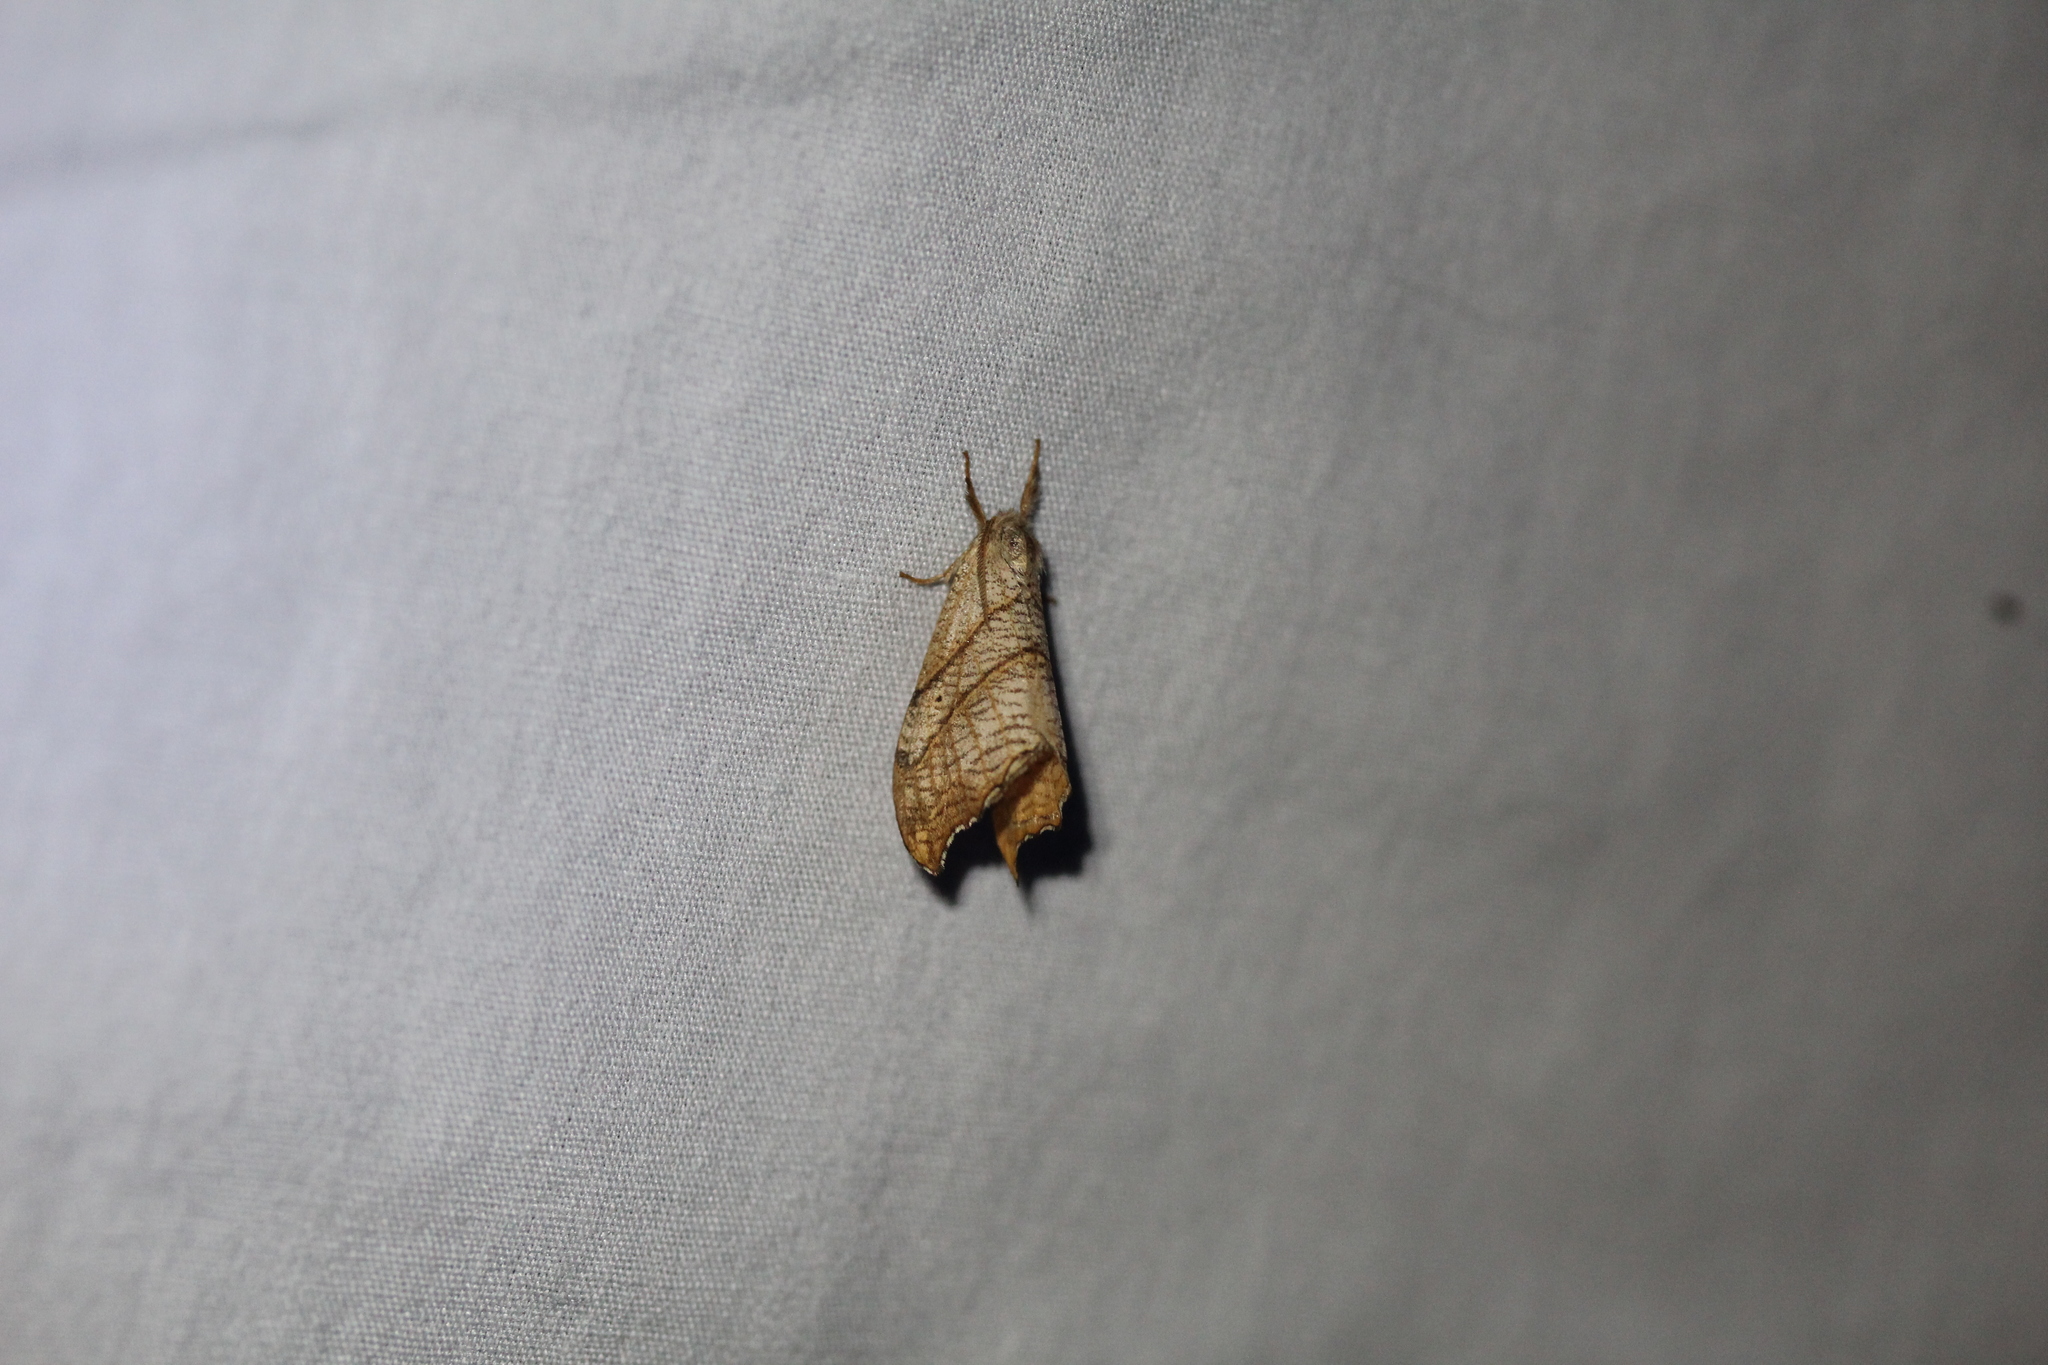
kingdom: Animalia
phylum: Arthropoda
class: Insecta
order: Lepidoptera
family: Drepanidae
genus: Falcaria
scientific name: Falcaria bilineata
